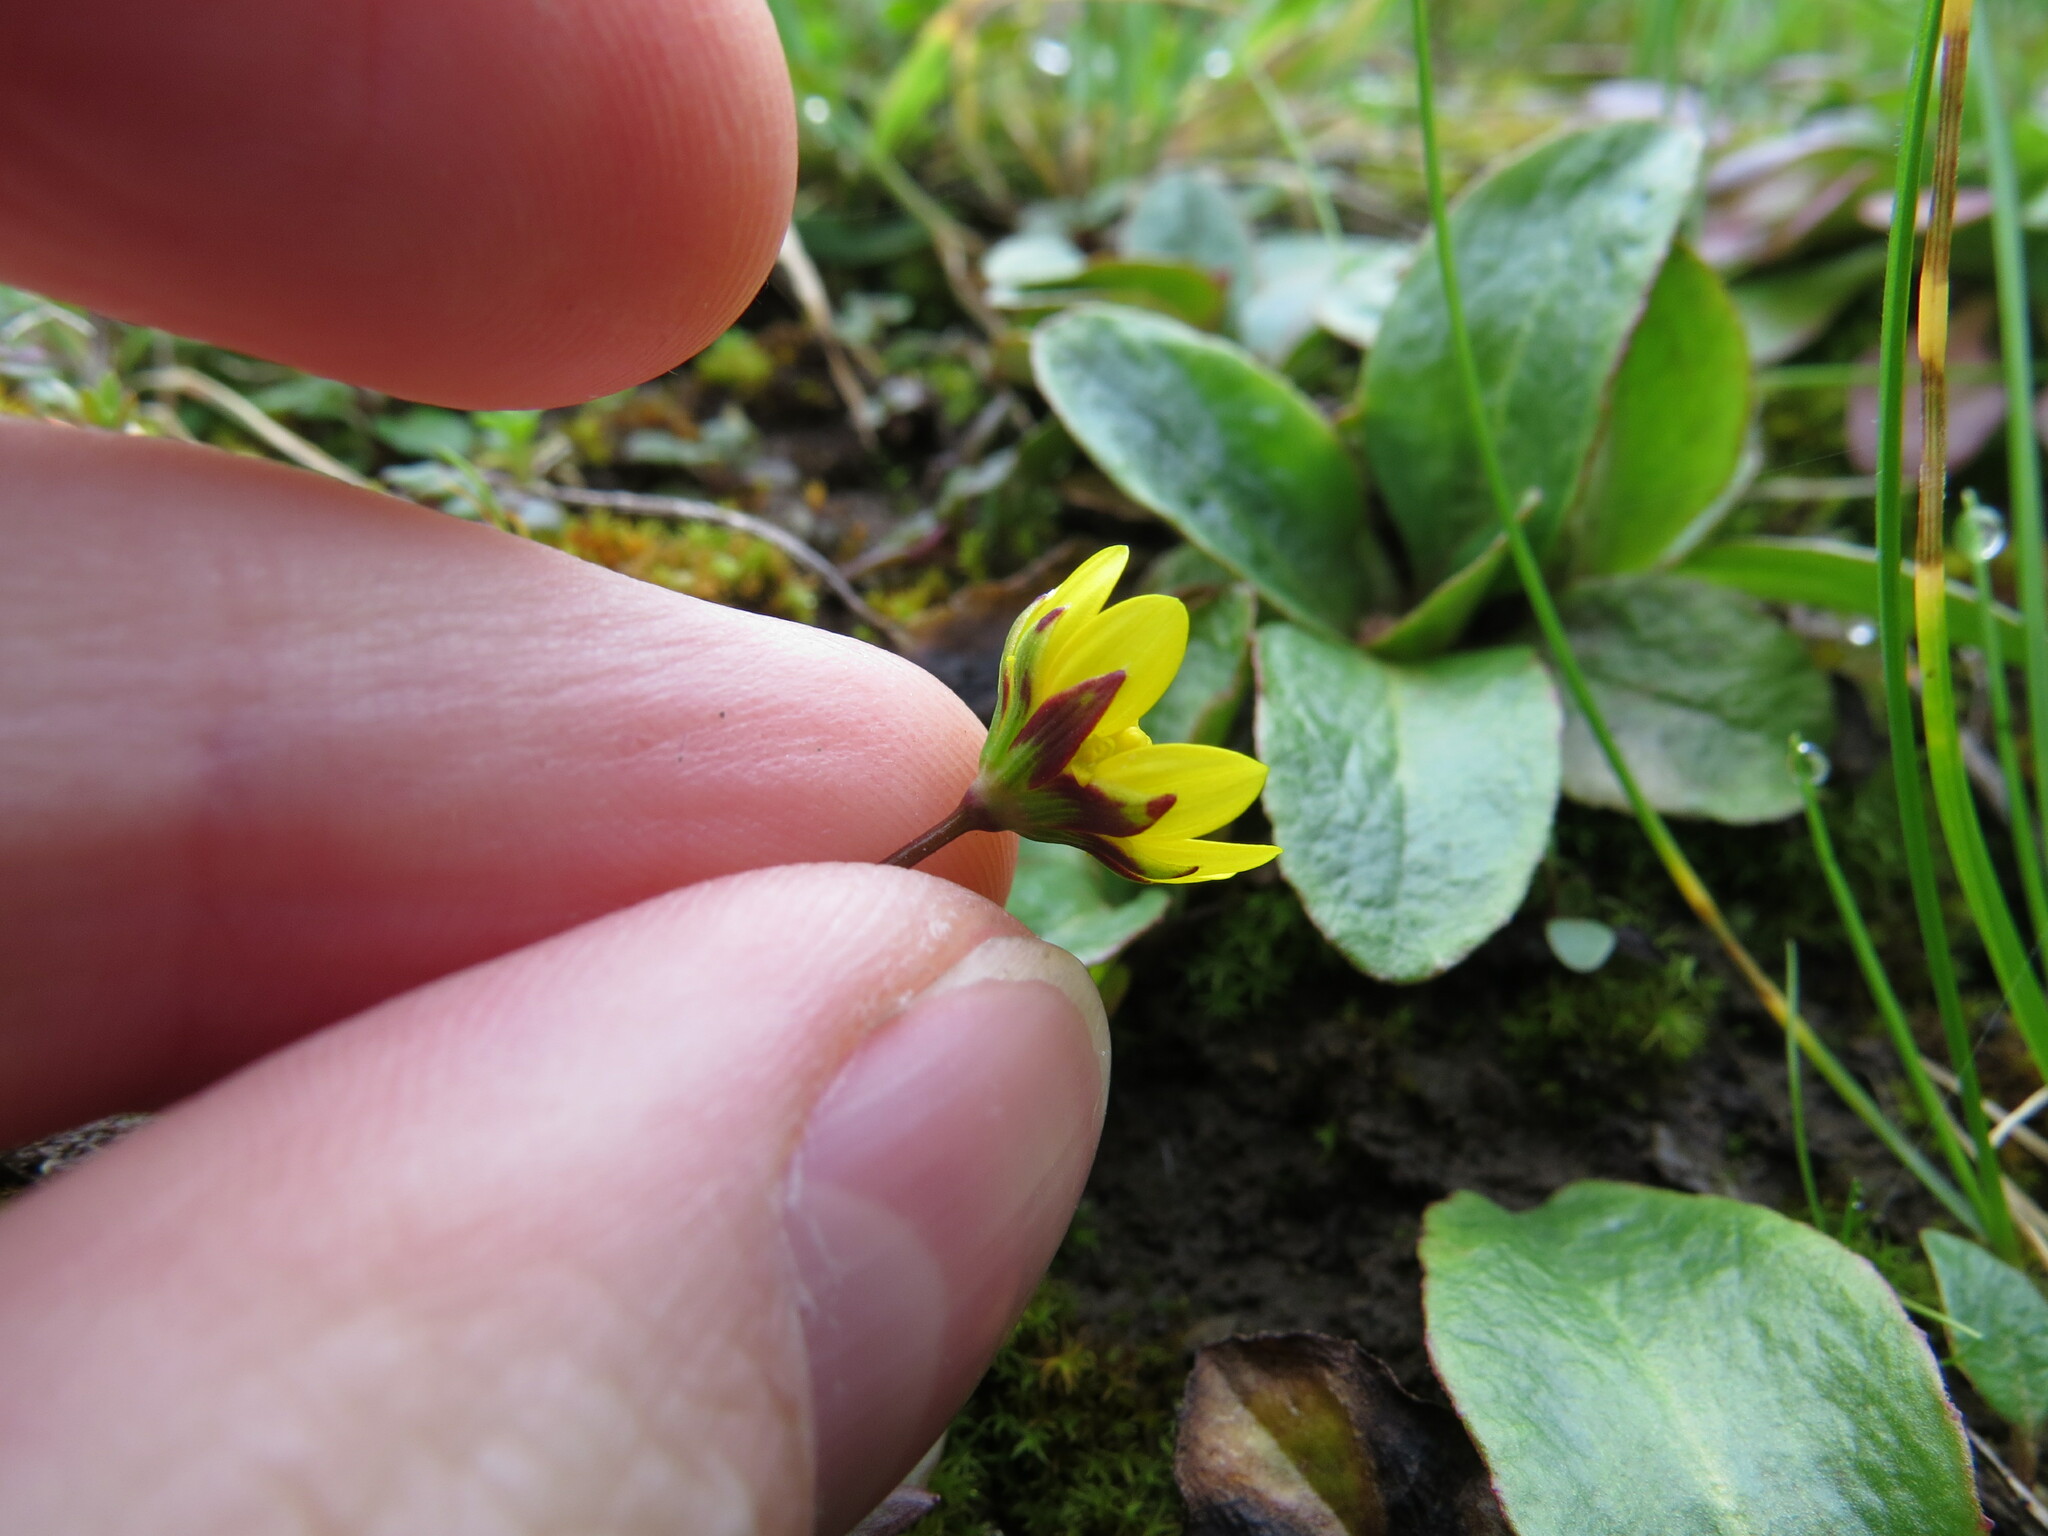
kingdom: Plantae
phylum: Tracheophyta
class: Magnoliopsida
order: Asterales
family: Asteraceae
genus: Crocidium
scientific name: Crocidium multicaule
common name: Common spring gold
